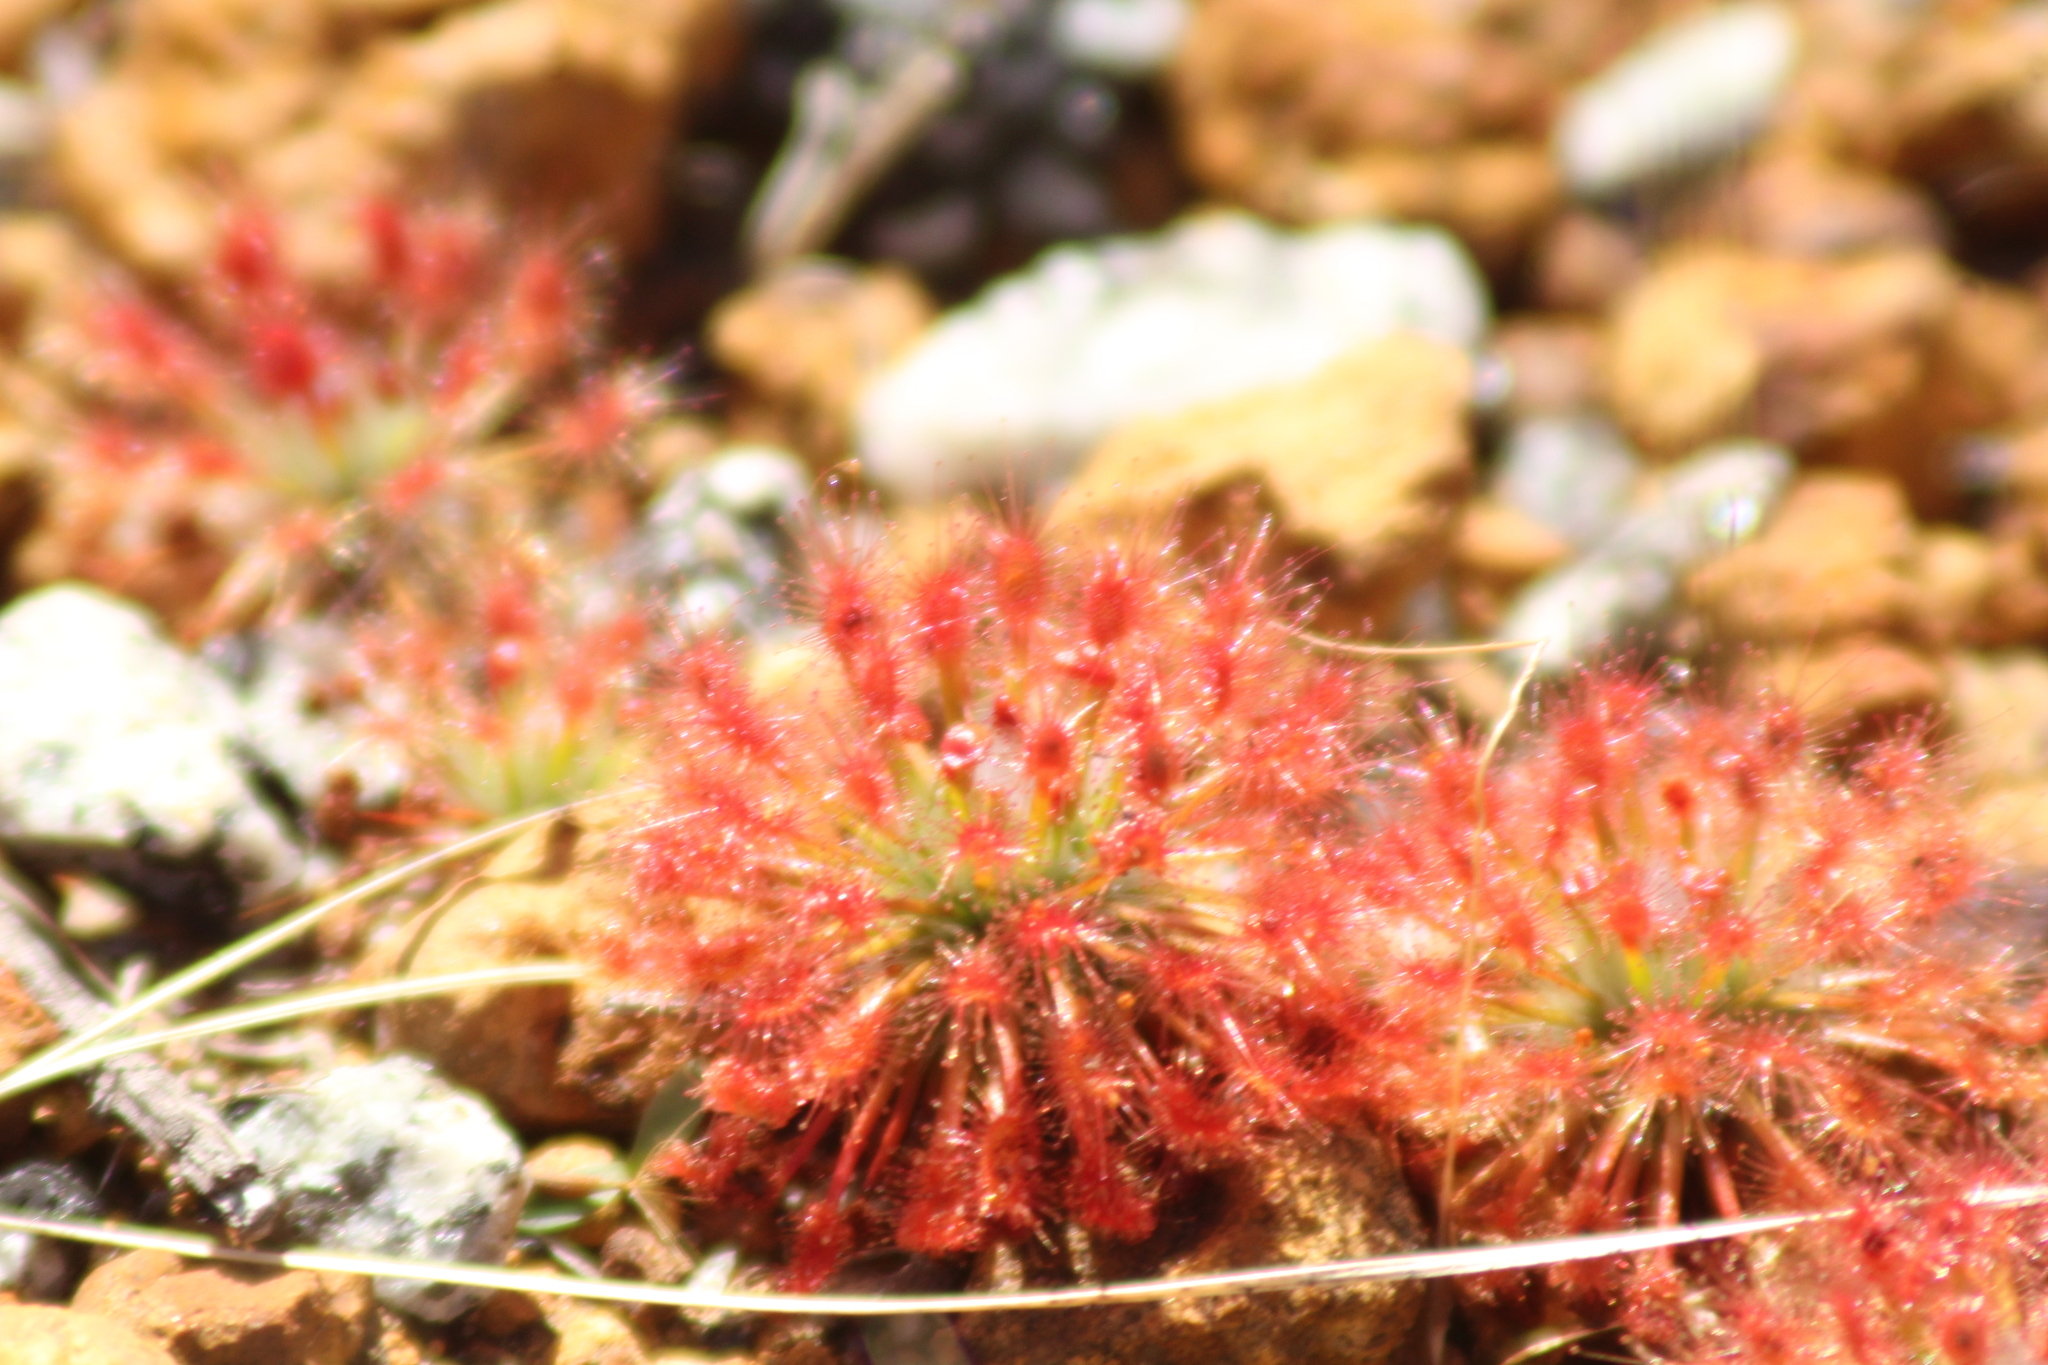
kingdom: Plantae
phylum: Tracheophyta
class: Magnoliopsida
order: Caryophyllales
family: Droseraceae
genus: Drosera
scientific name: Drosera paleacea
